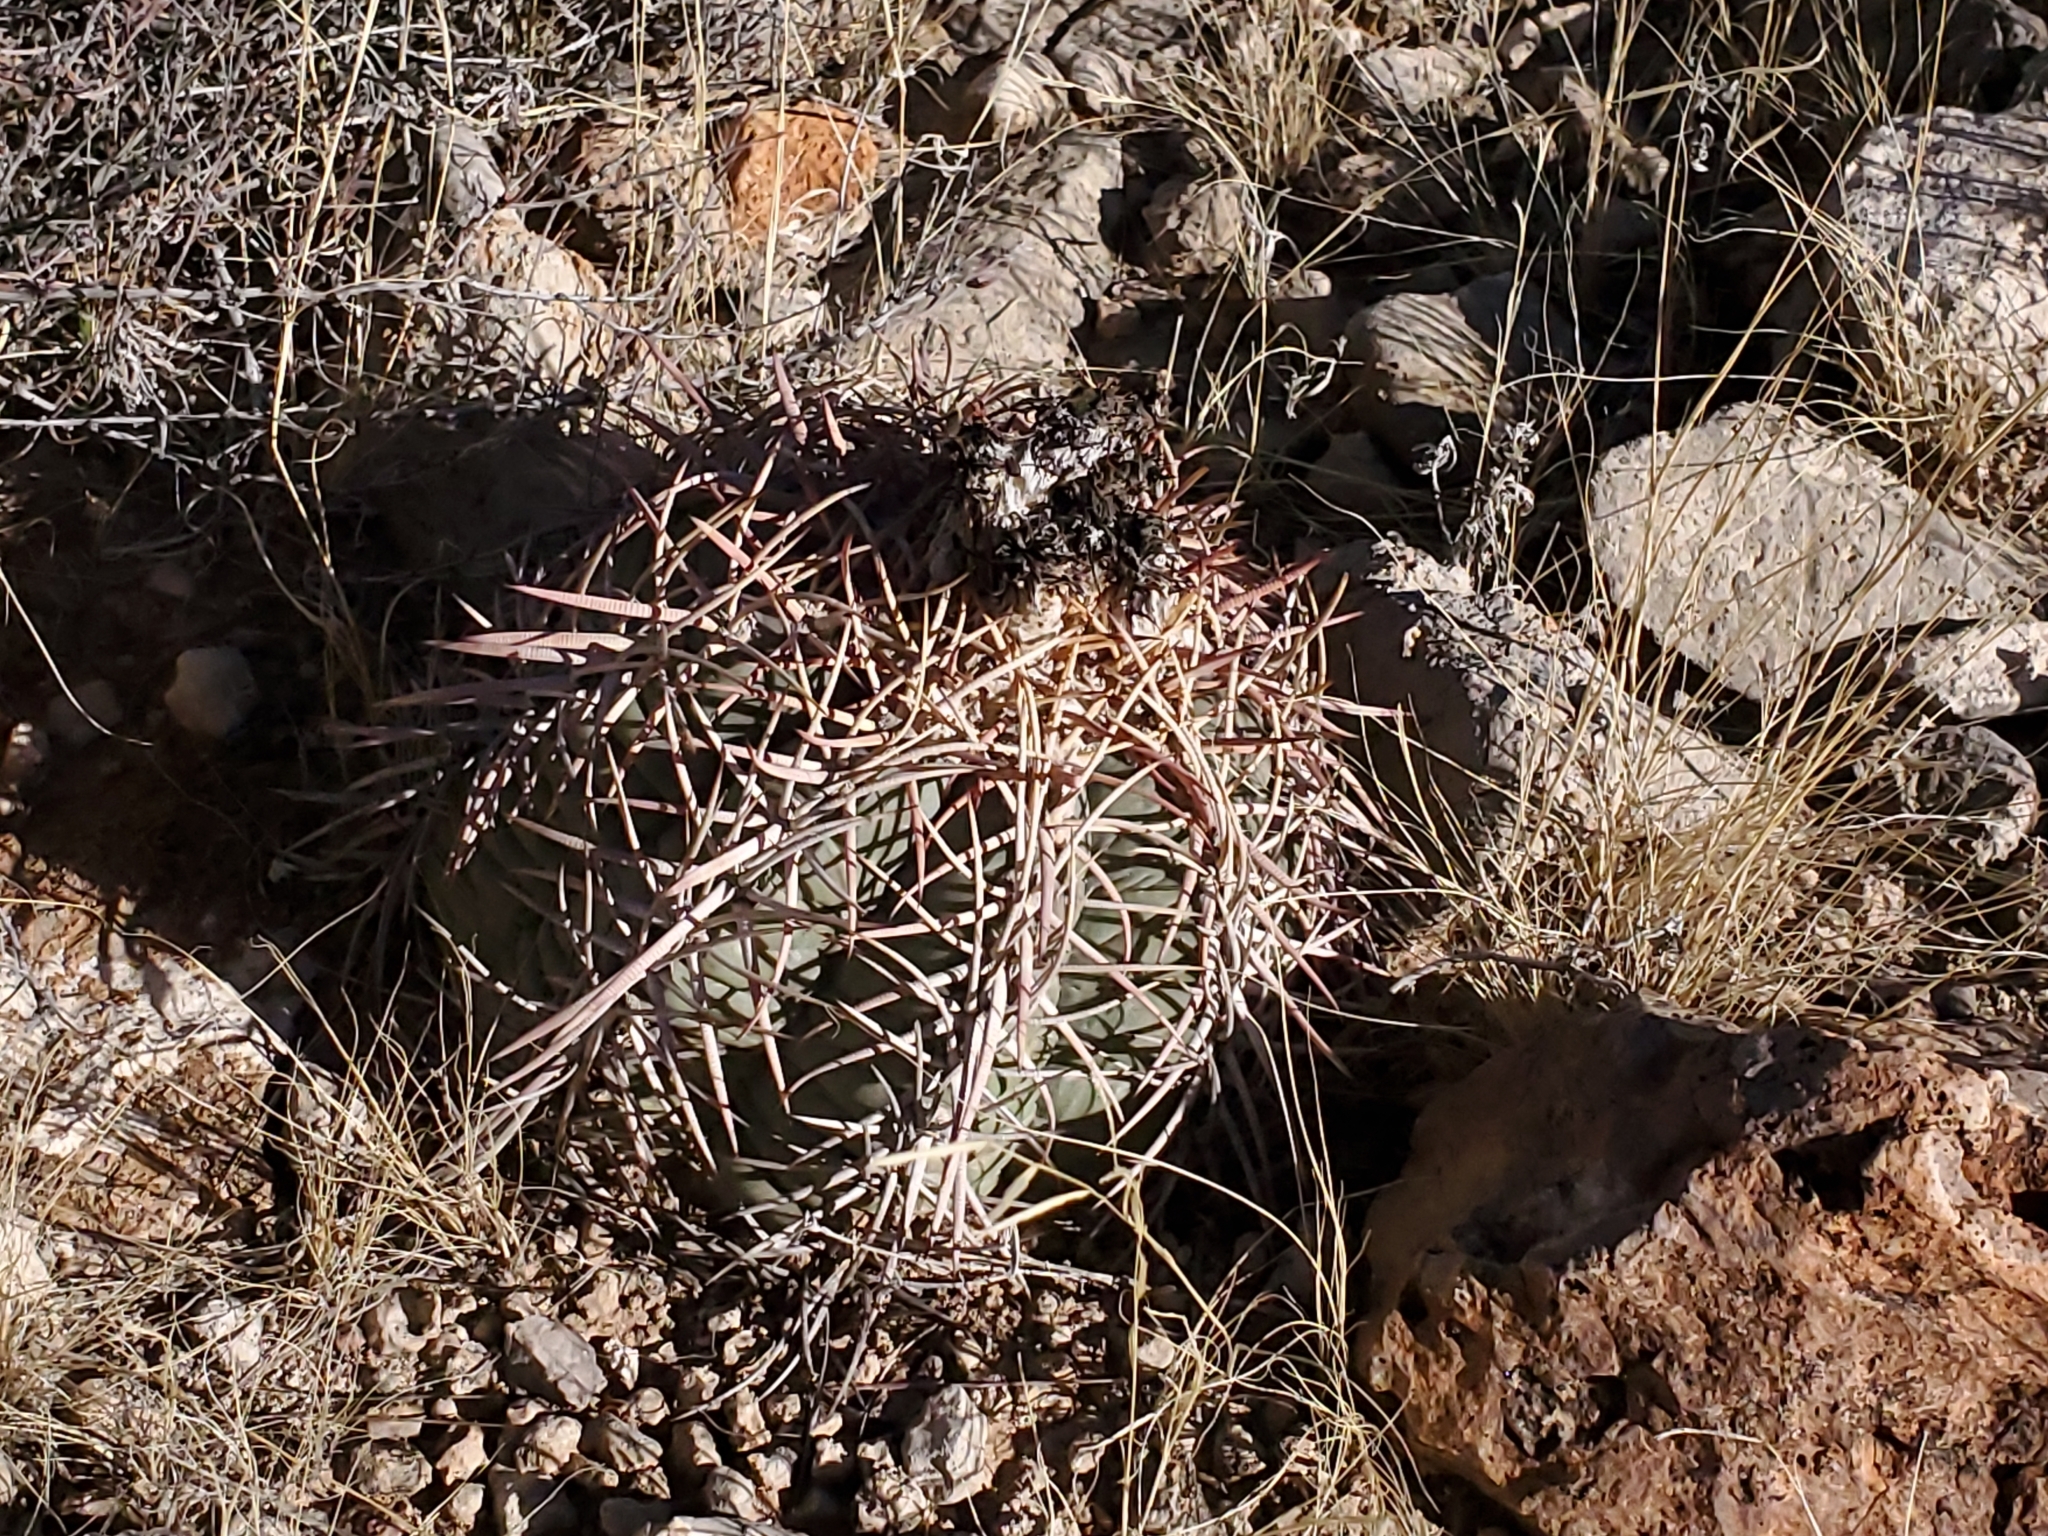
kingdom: Plantae
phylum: Tracheophyta
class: Magnoliopsida
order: Caryophyllales
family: Cactaceae
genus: Echinocactus
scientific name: Echinocactus horizonthalonius
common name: Devilshead
